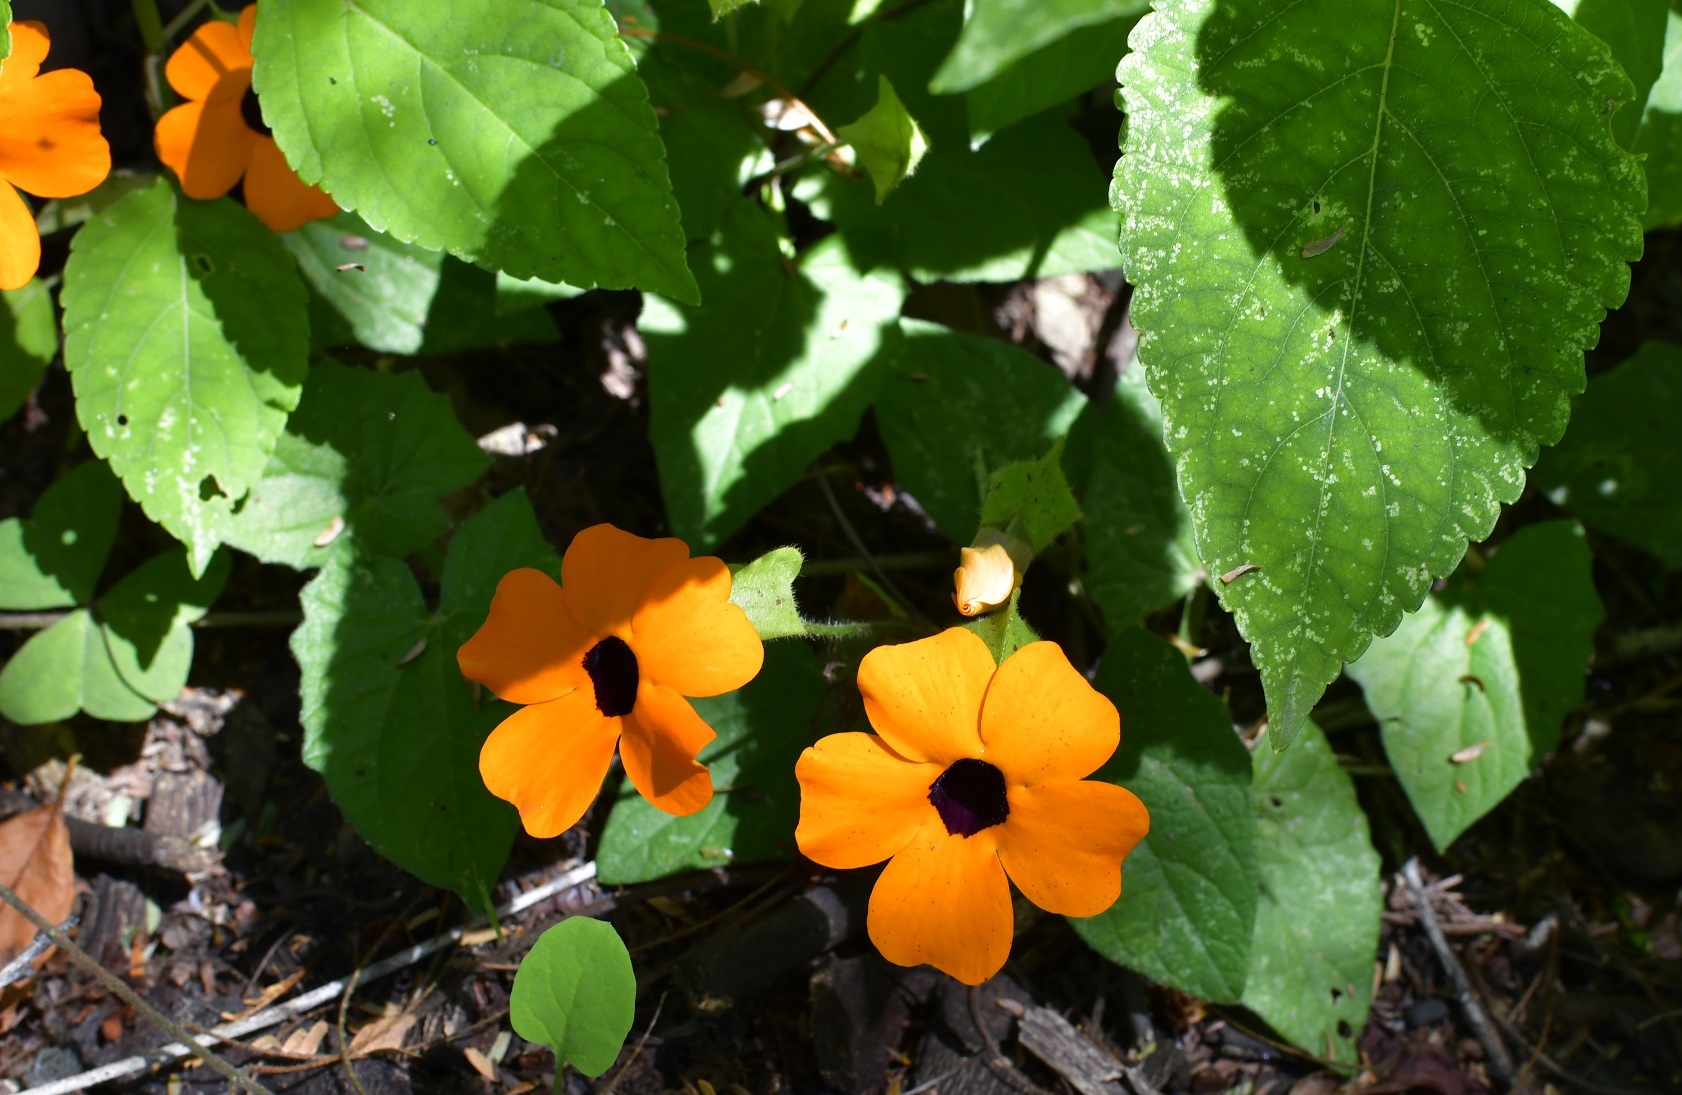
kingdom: Plantae
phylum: Tracheophyta
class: Magnoliopsida
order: Lamiales
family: Acanthaceae
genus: Thunbergia
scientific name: Thunbergia alata
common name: Blackeyed susan vine
